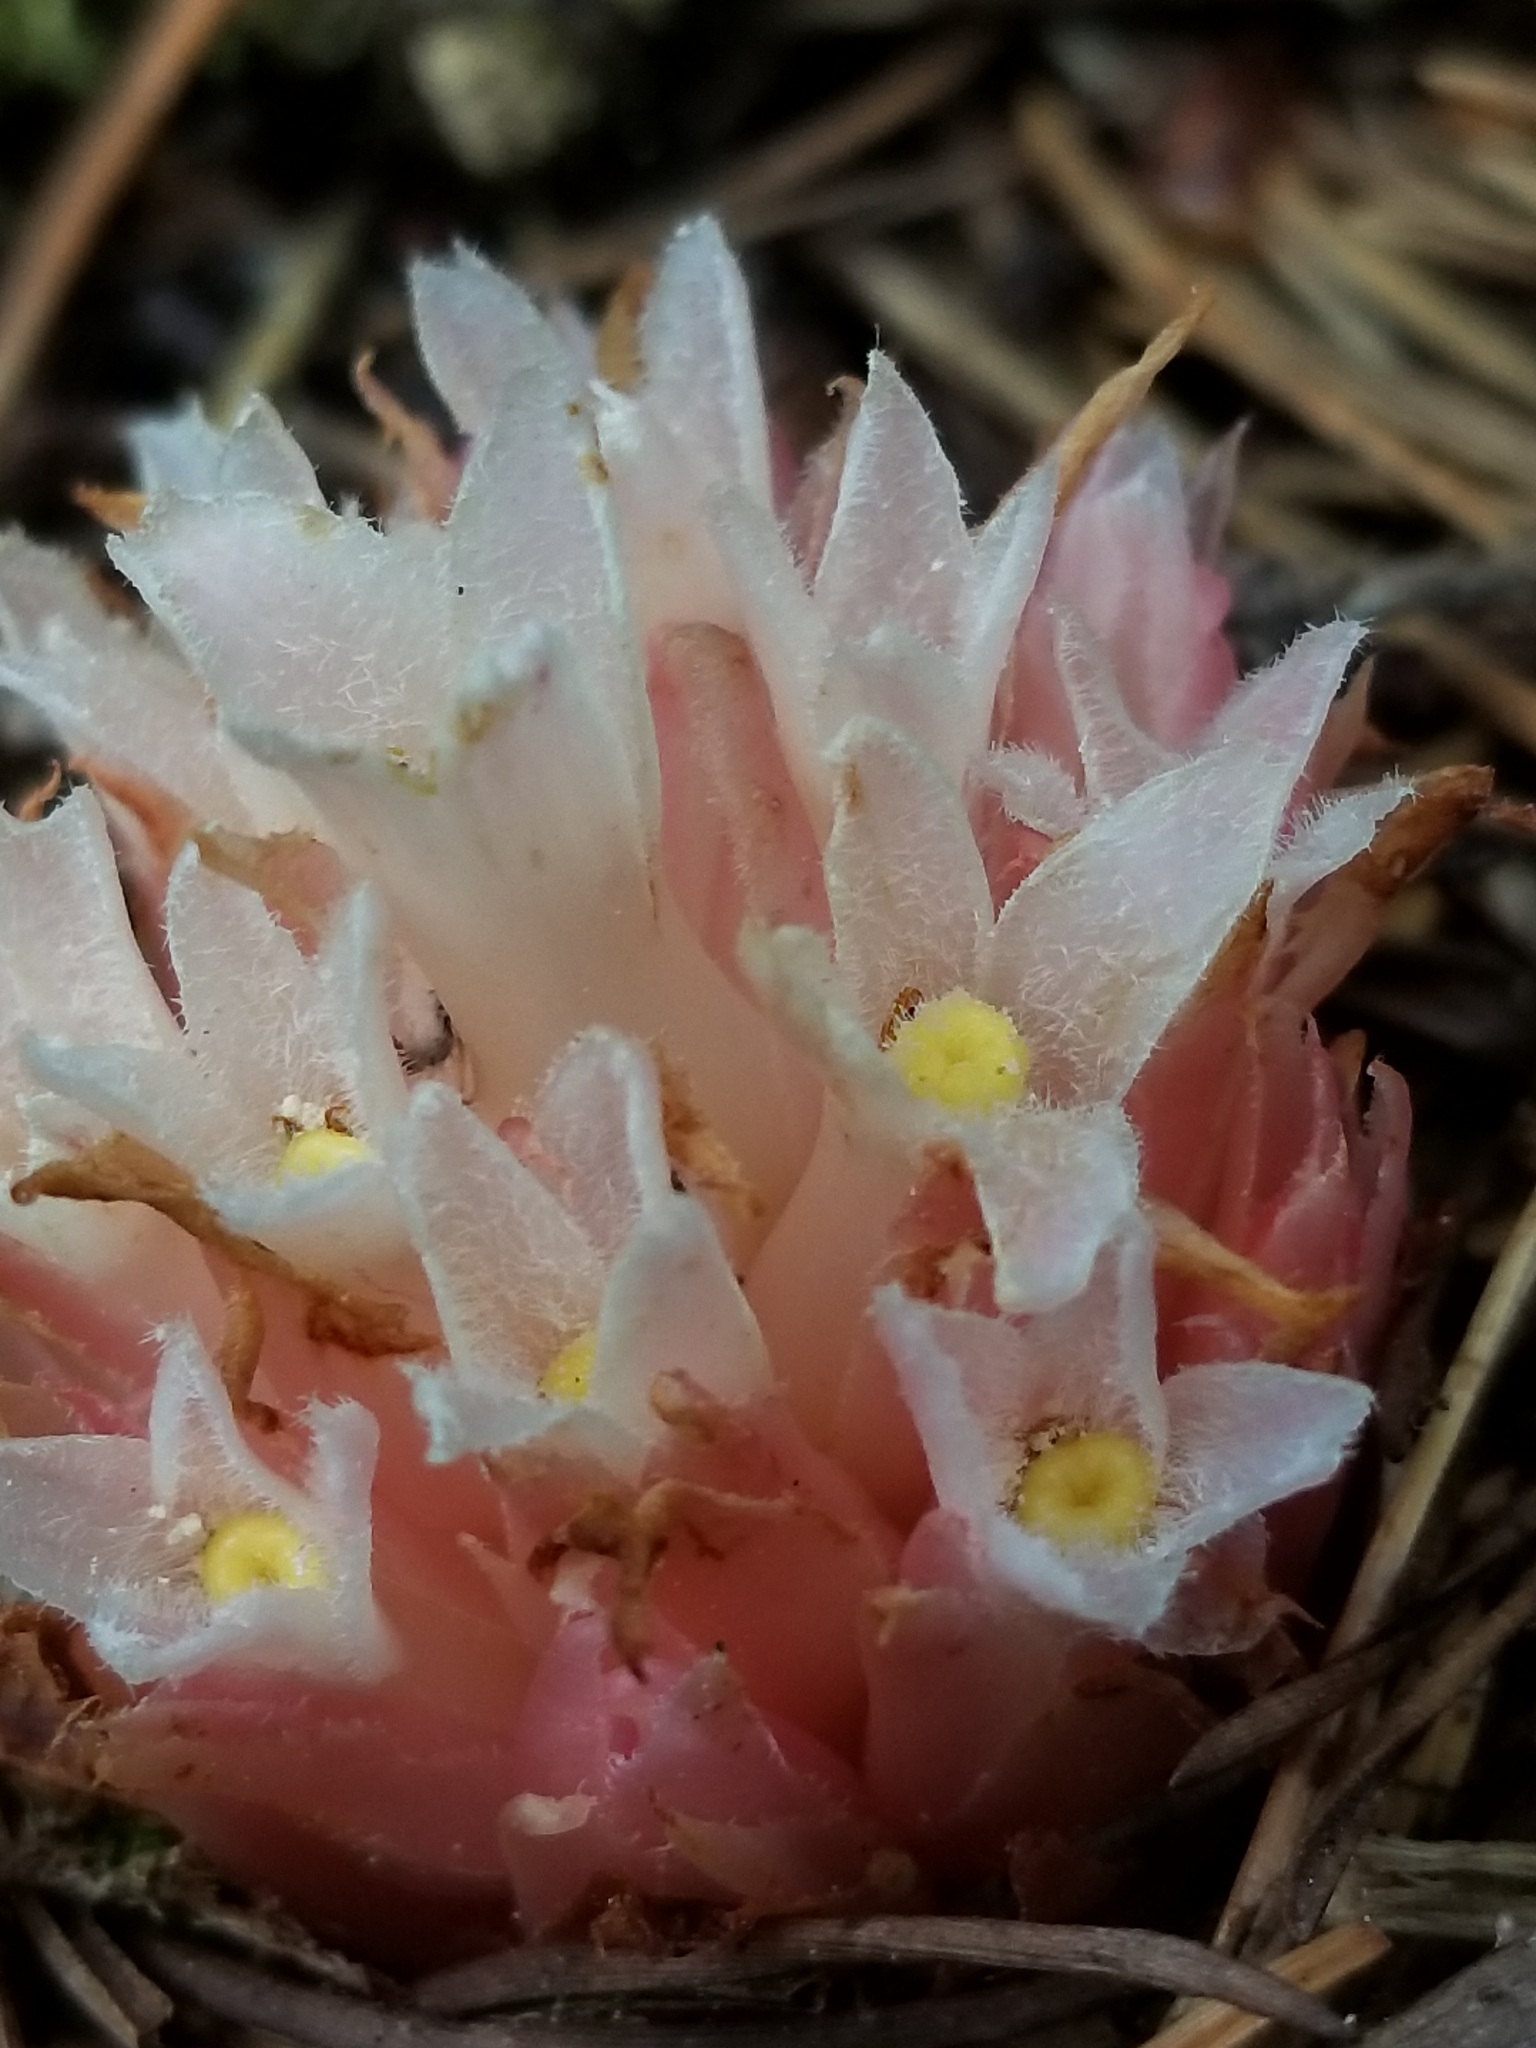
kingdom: Plantae
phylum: Tracheophyta
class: Magnoliopsida
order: Ericales
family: Ericaceae
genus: Hemitomes
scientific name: Hemitomes congestum
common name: Cone plant
